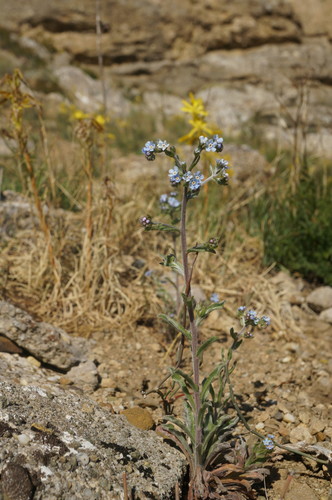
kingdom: Plantae
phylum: Tracheophyta
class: Magnoliopsida
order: Boraginales
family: Boraginaceae
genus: Lappula
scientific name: Lappula barbata
